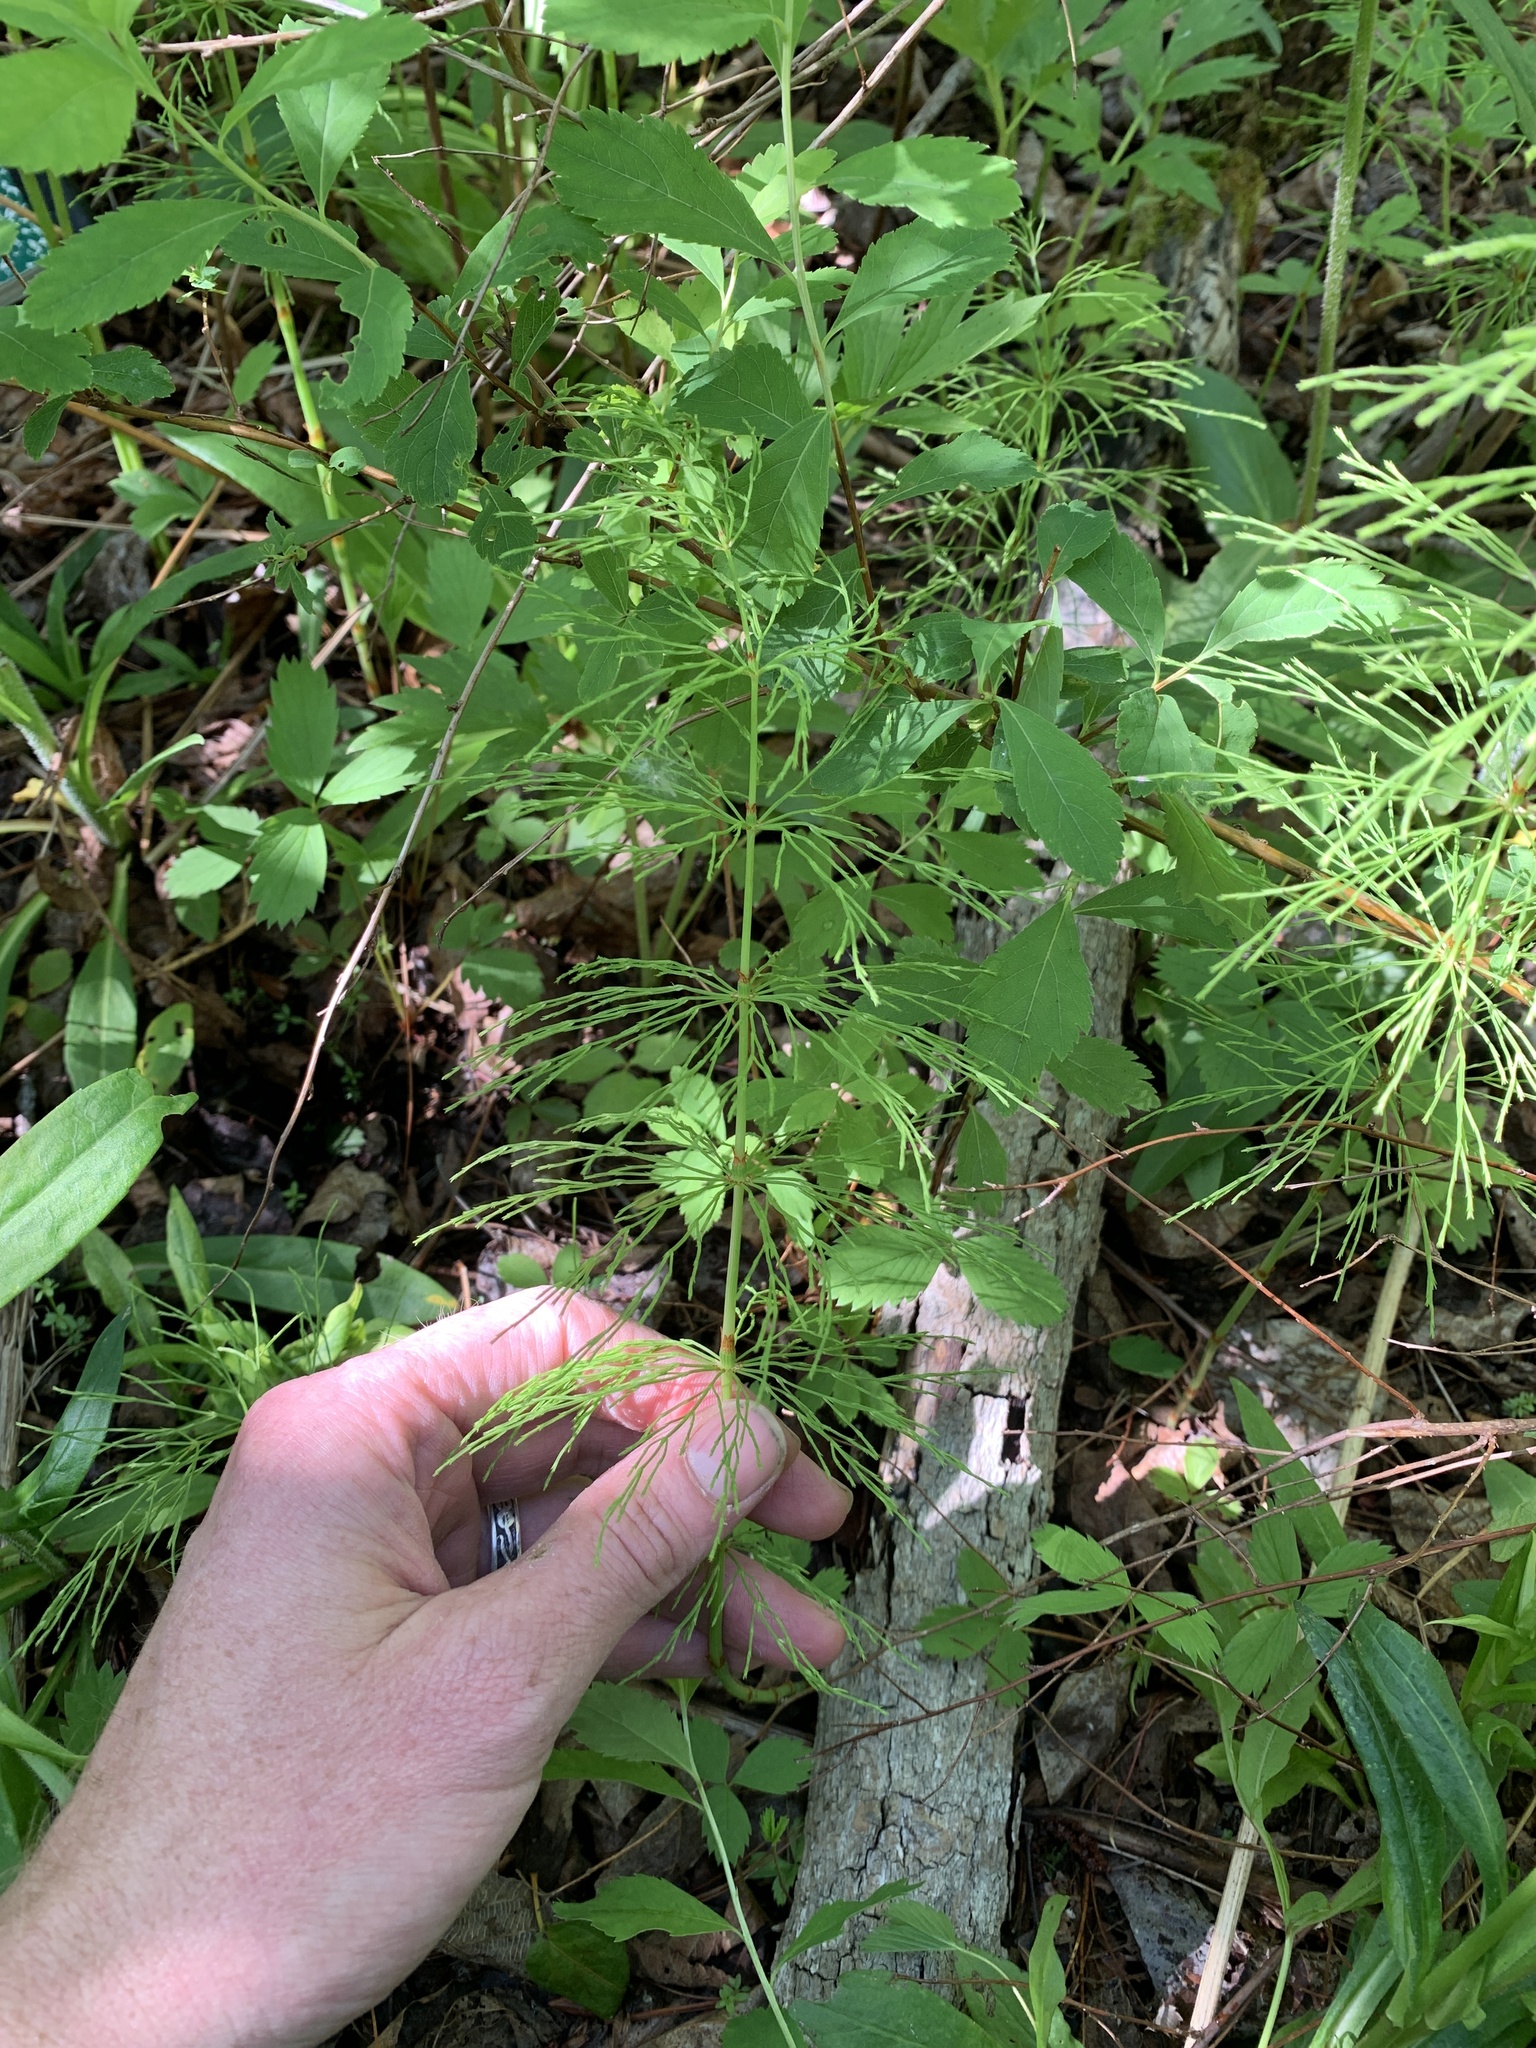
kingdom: Plantae
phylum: Tracheophyta
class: Polypodiopsida
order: Equisetales
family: Equisetaceae
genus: Equisetum
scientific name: Equisetum sylvaticum
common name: Wood horsetail
